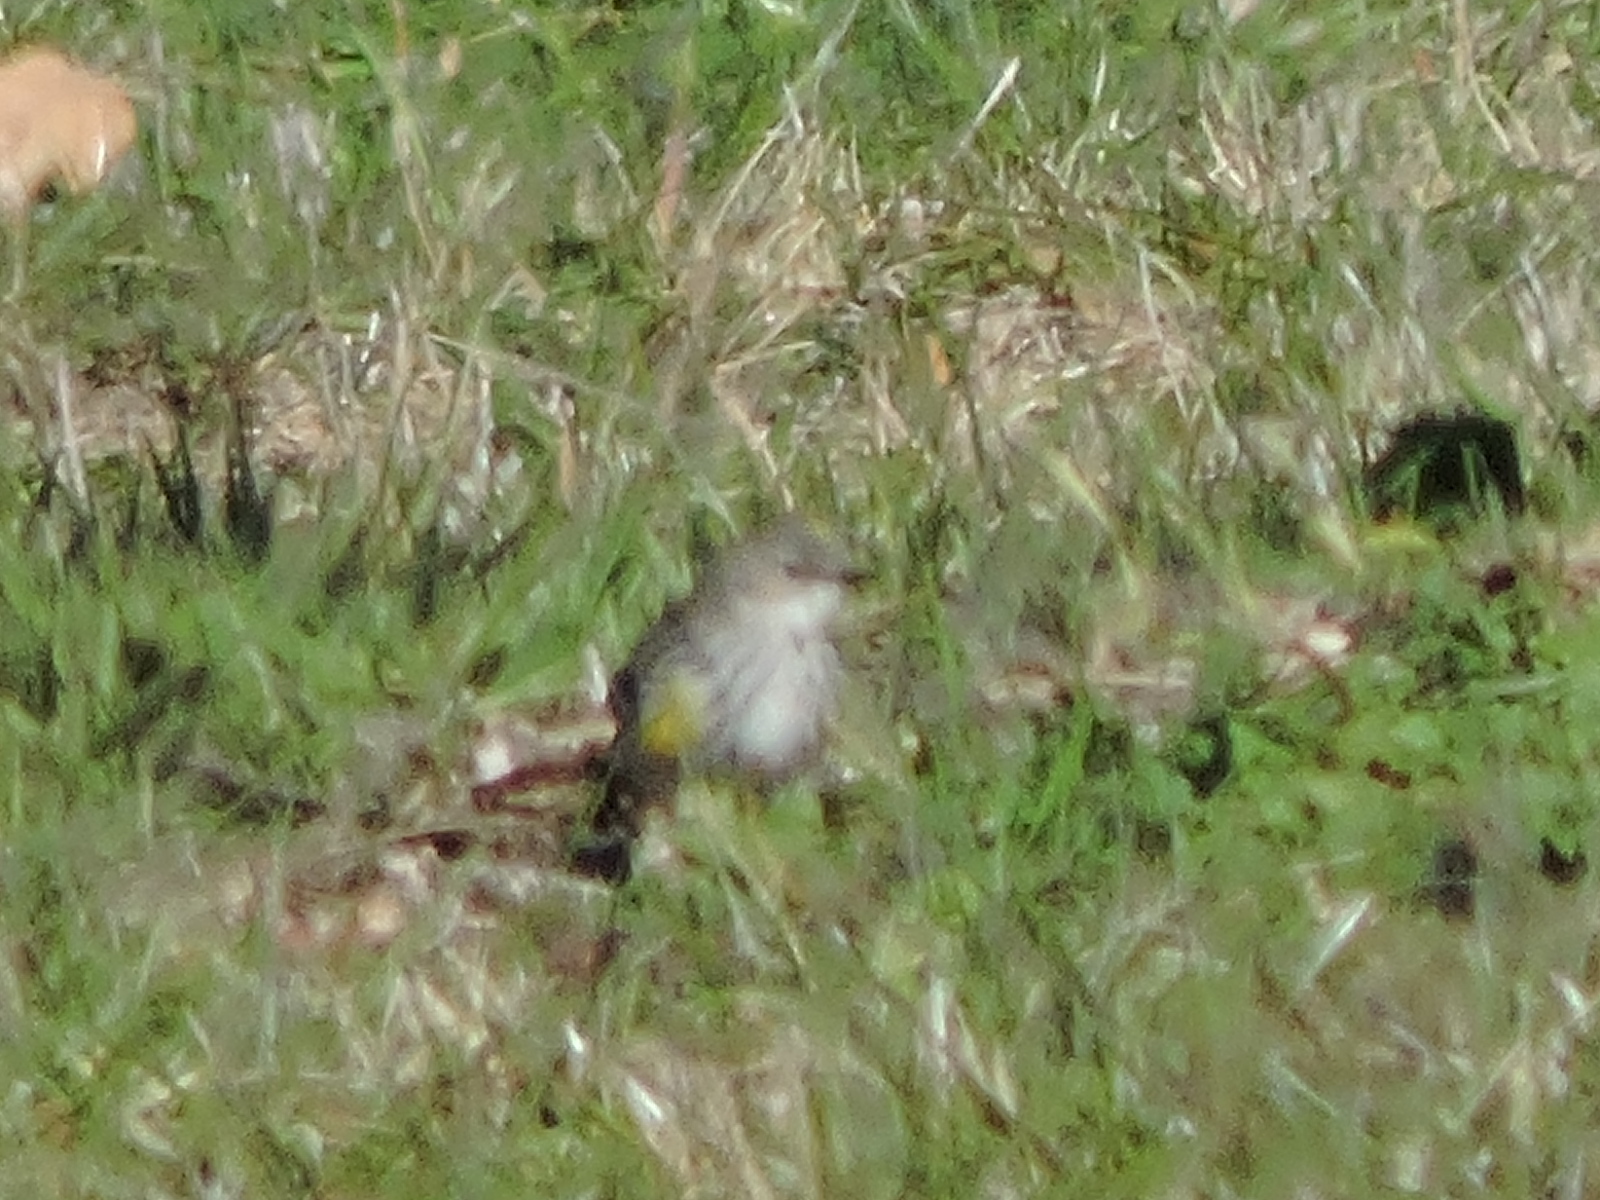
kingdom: Animalia
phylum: Chordata
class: Aves
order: Passeriformes
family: Parulidae
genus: Setophaga
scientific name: Setophaga coronata
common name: Myrtle warbler
